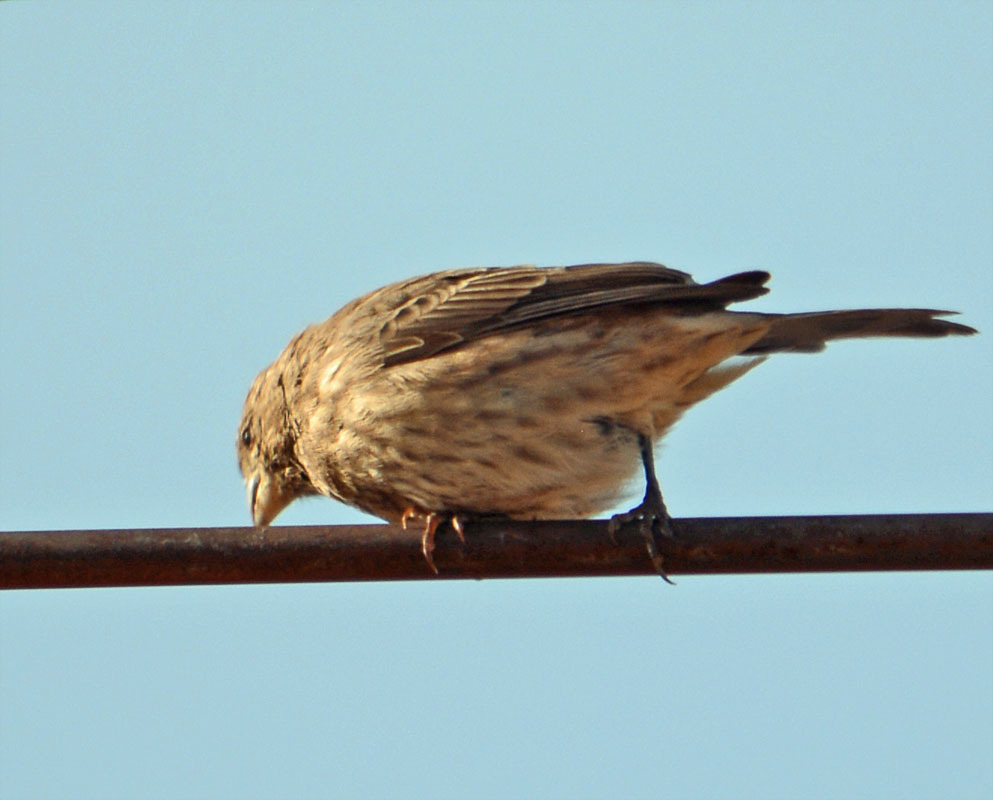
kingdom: Animalia
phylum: Chordata
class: Aves
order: Passeriformes
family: Fringillidae
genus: Haemorhous
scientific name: Haemorhous mexicanus
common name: House finch
